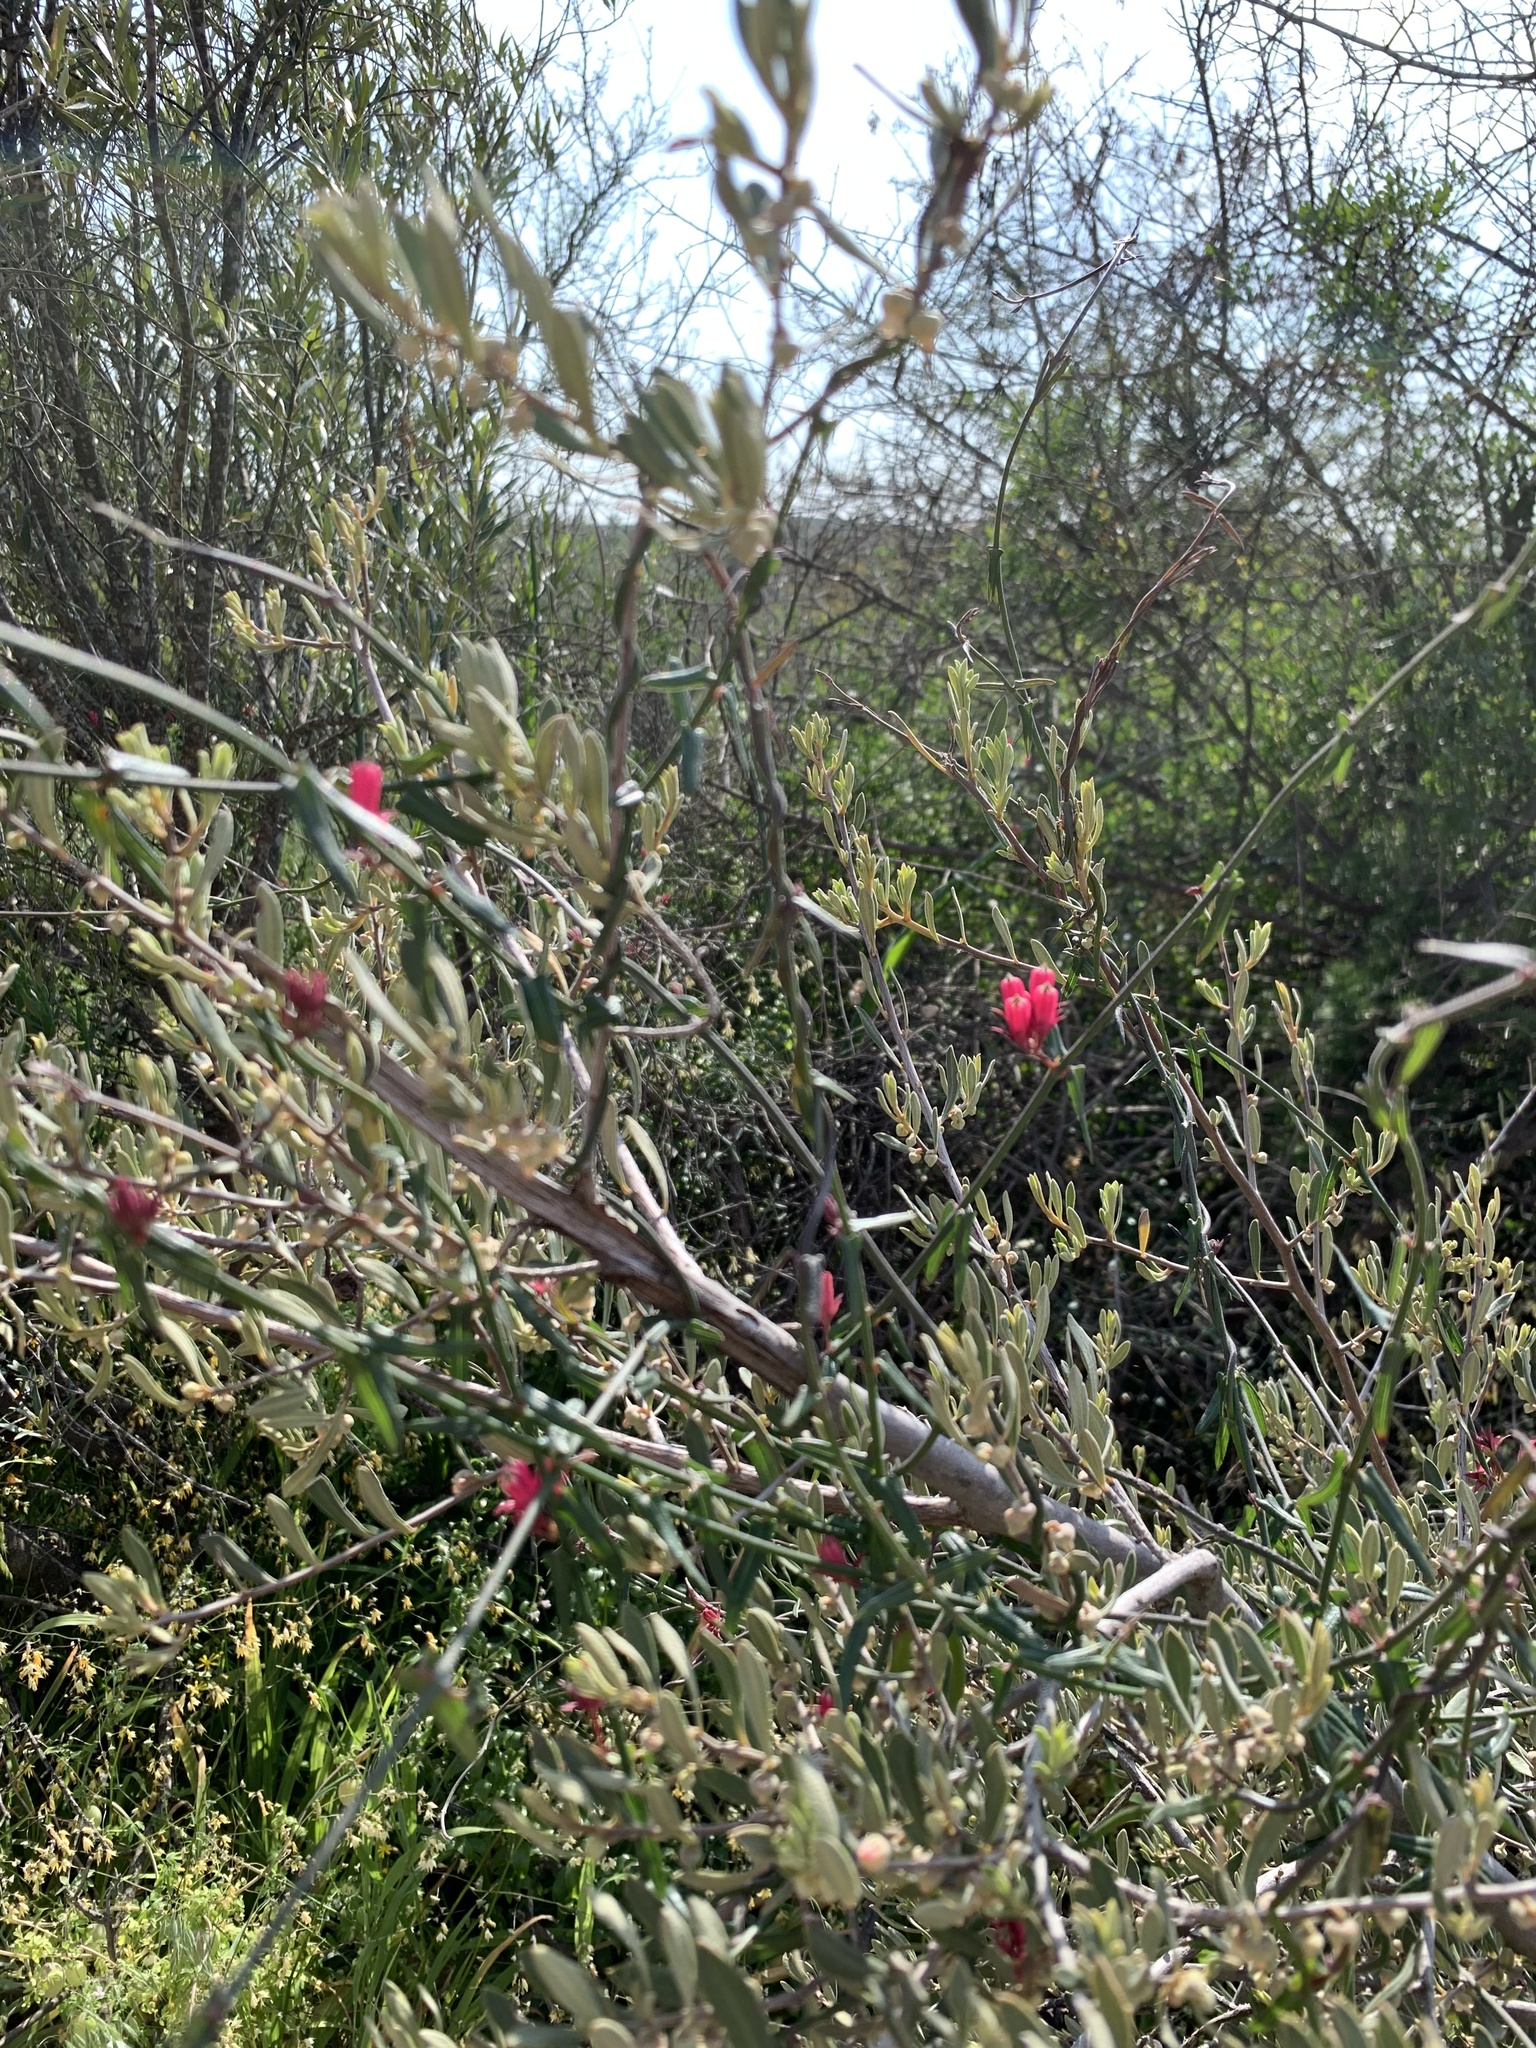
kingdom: Plantae
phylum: Tracheophyta
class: Magnoliopsida
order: Gentianales
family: Apocynaceae
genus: Microloma
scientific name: Microloma sagittatum
